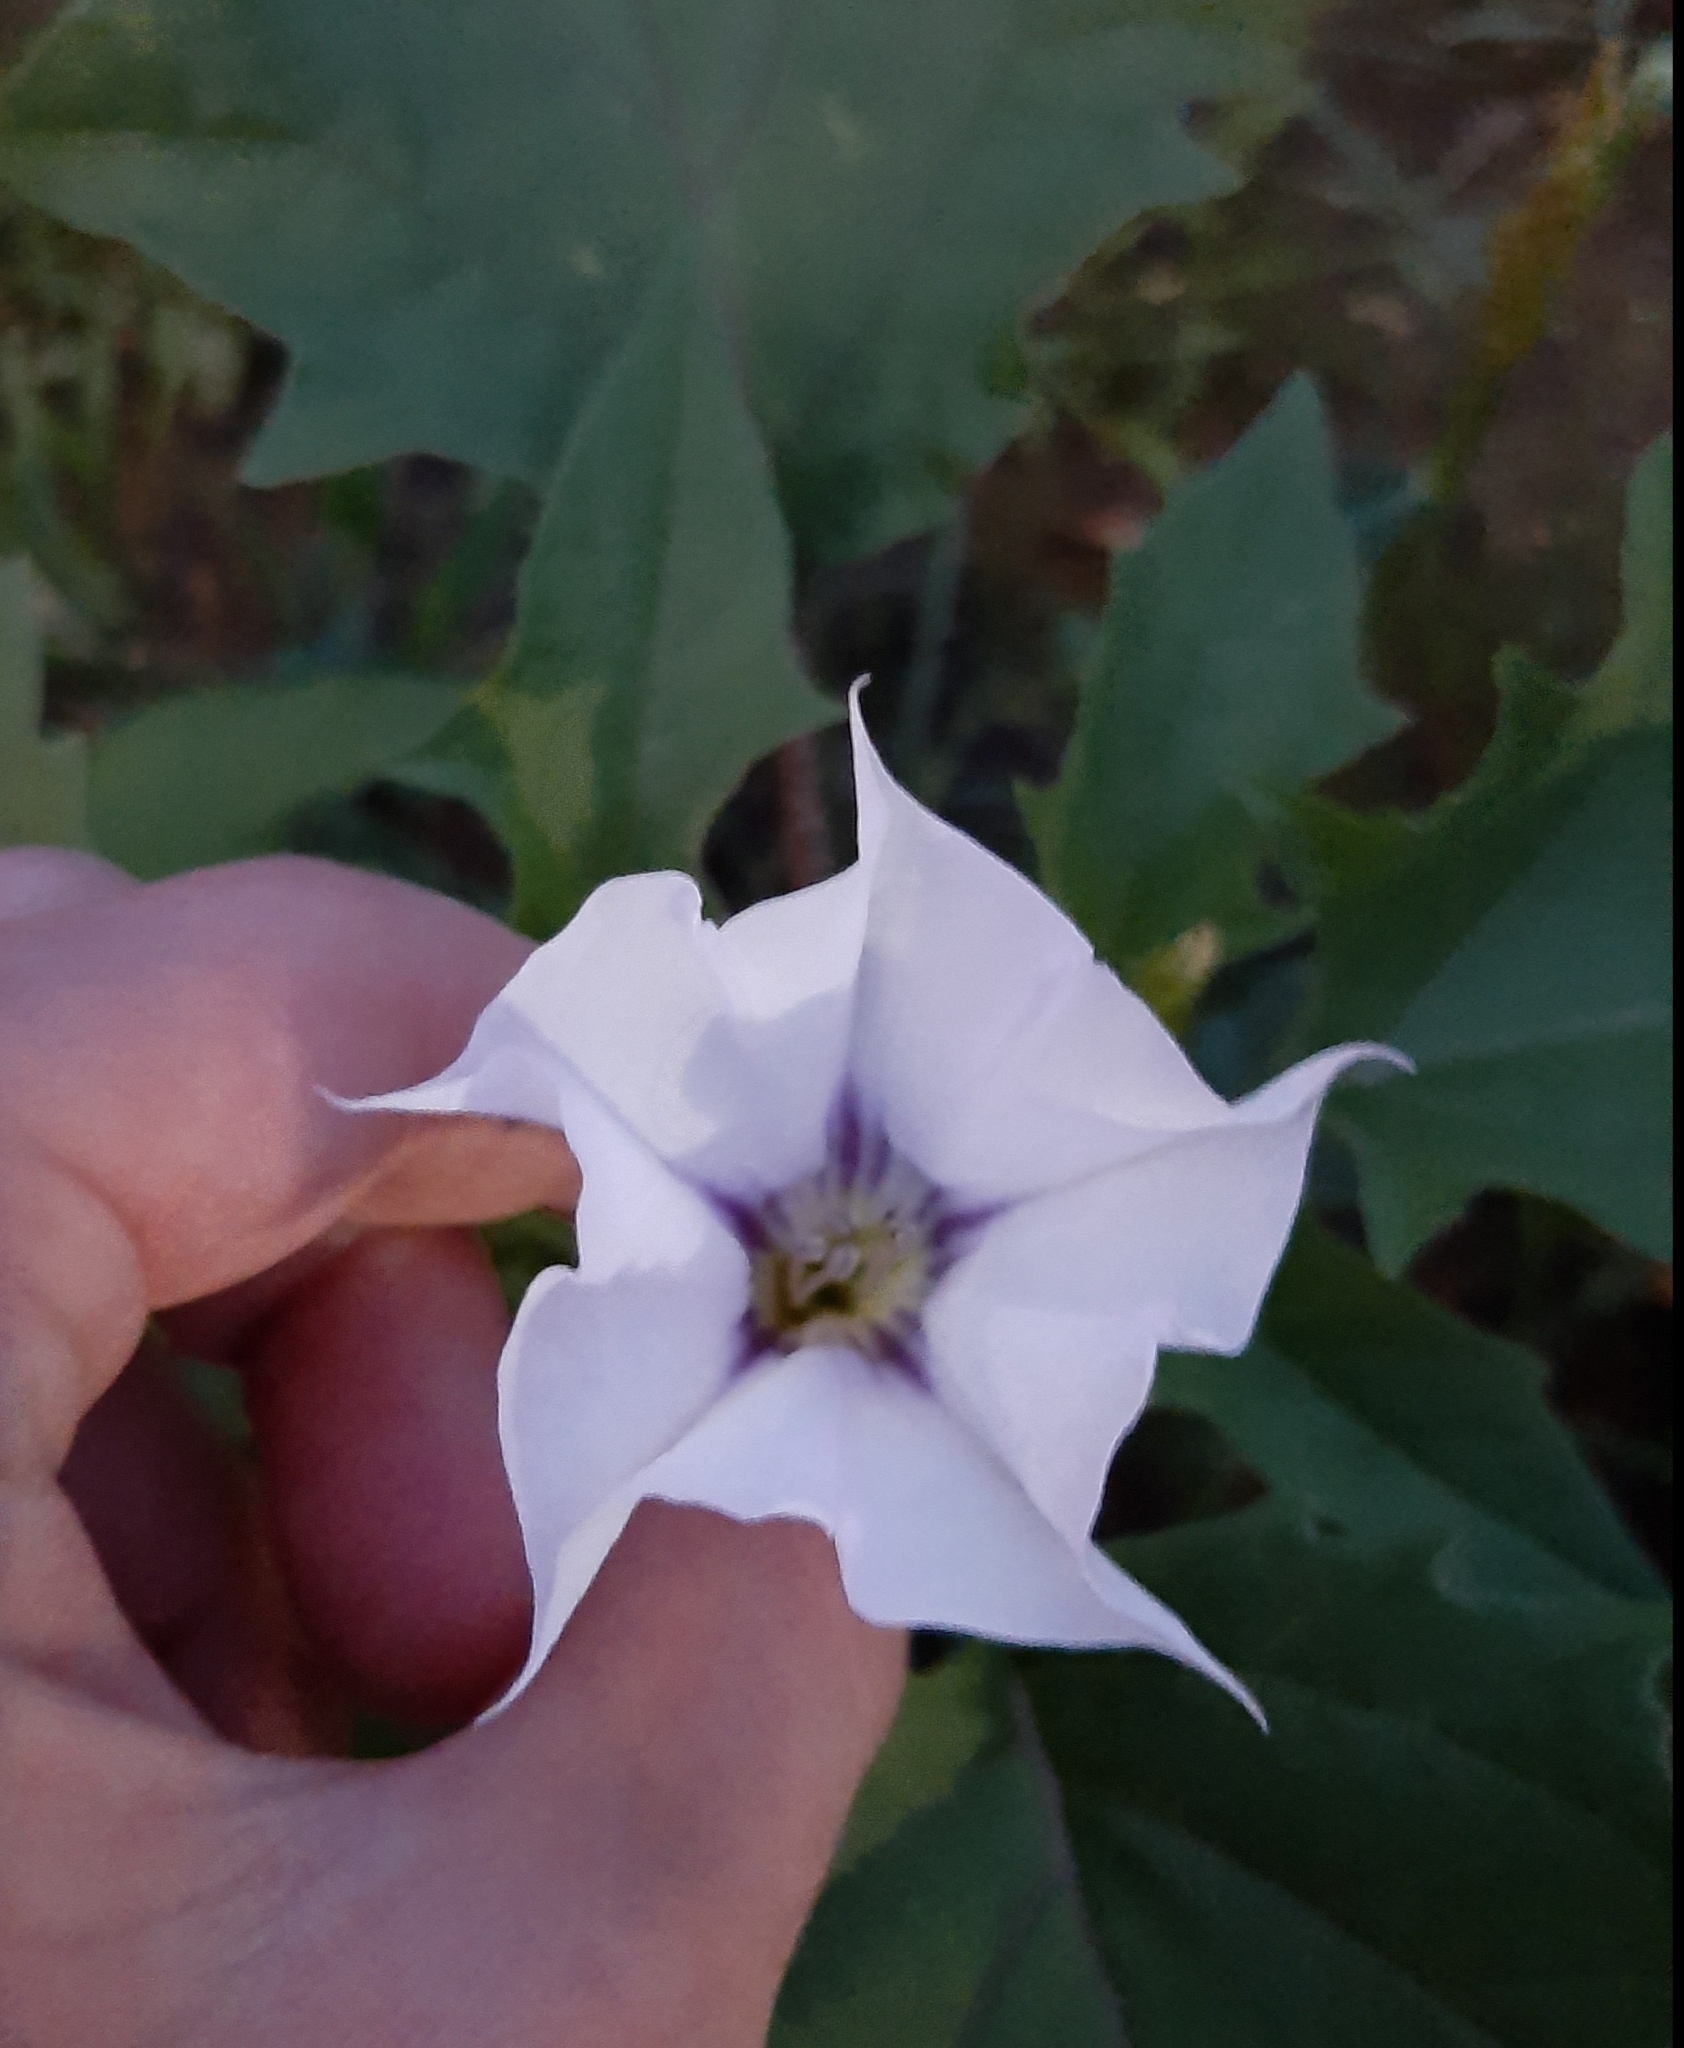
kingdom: Plantae
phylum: Tracheophyta
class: Magnoliopsida
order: Solanales
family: Solanaceae
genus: Datura
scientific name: Datura stramonium
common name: Thorn-apple
